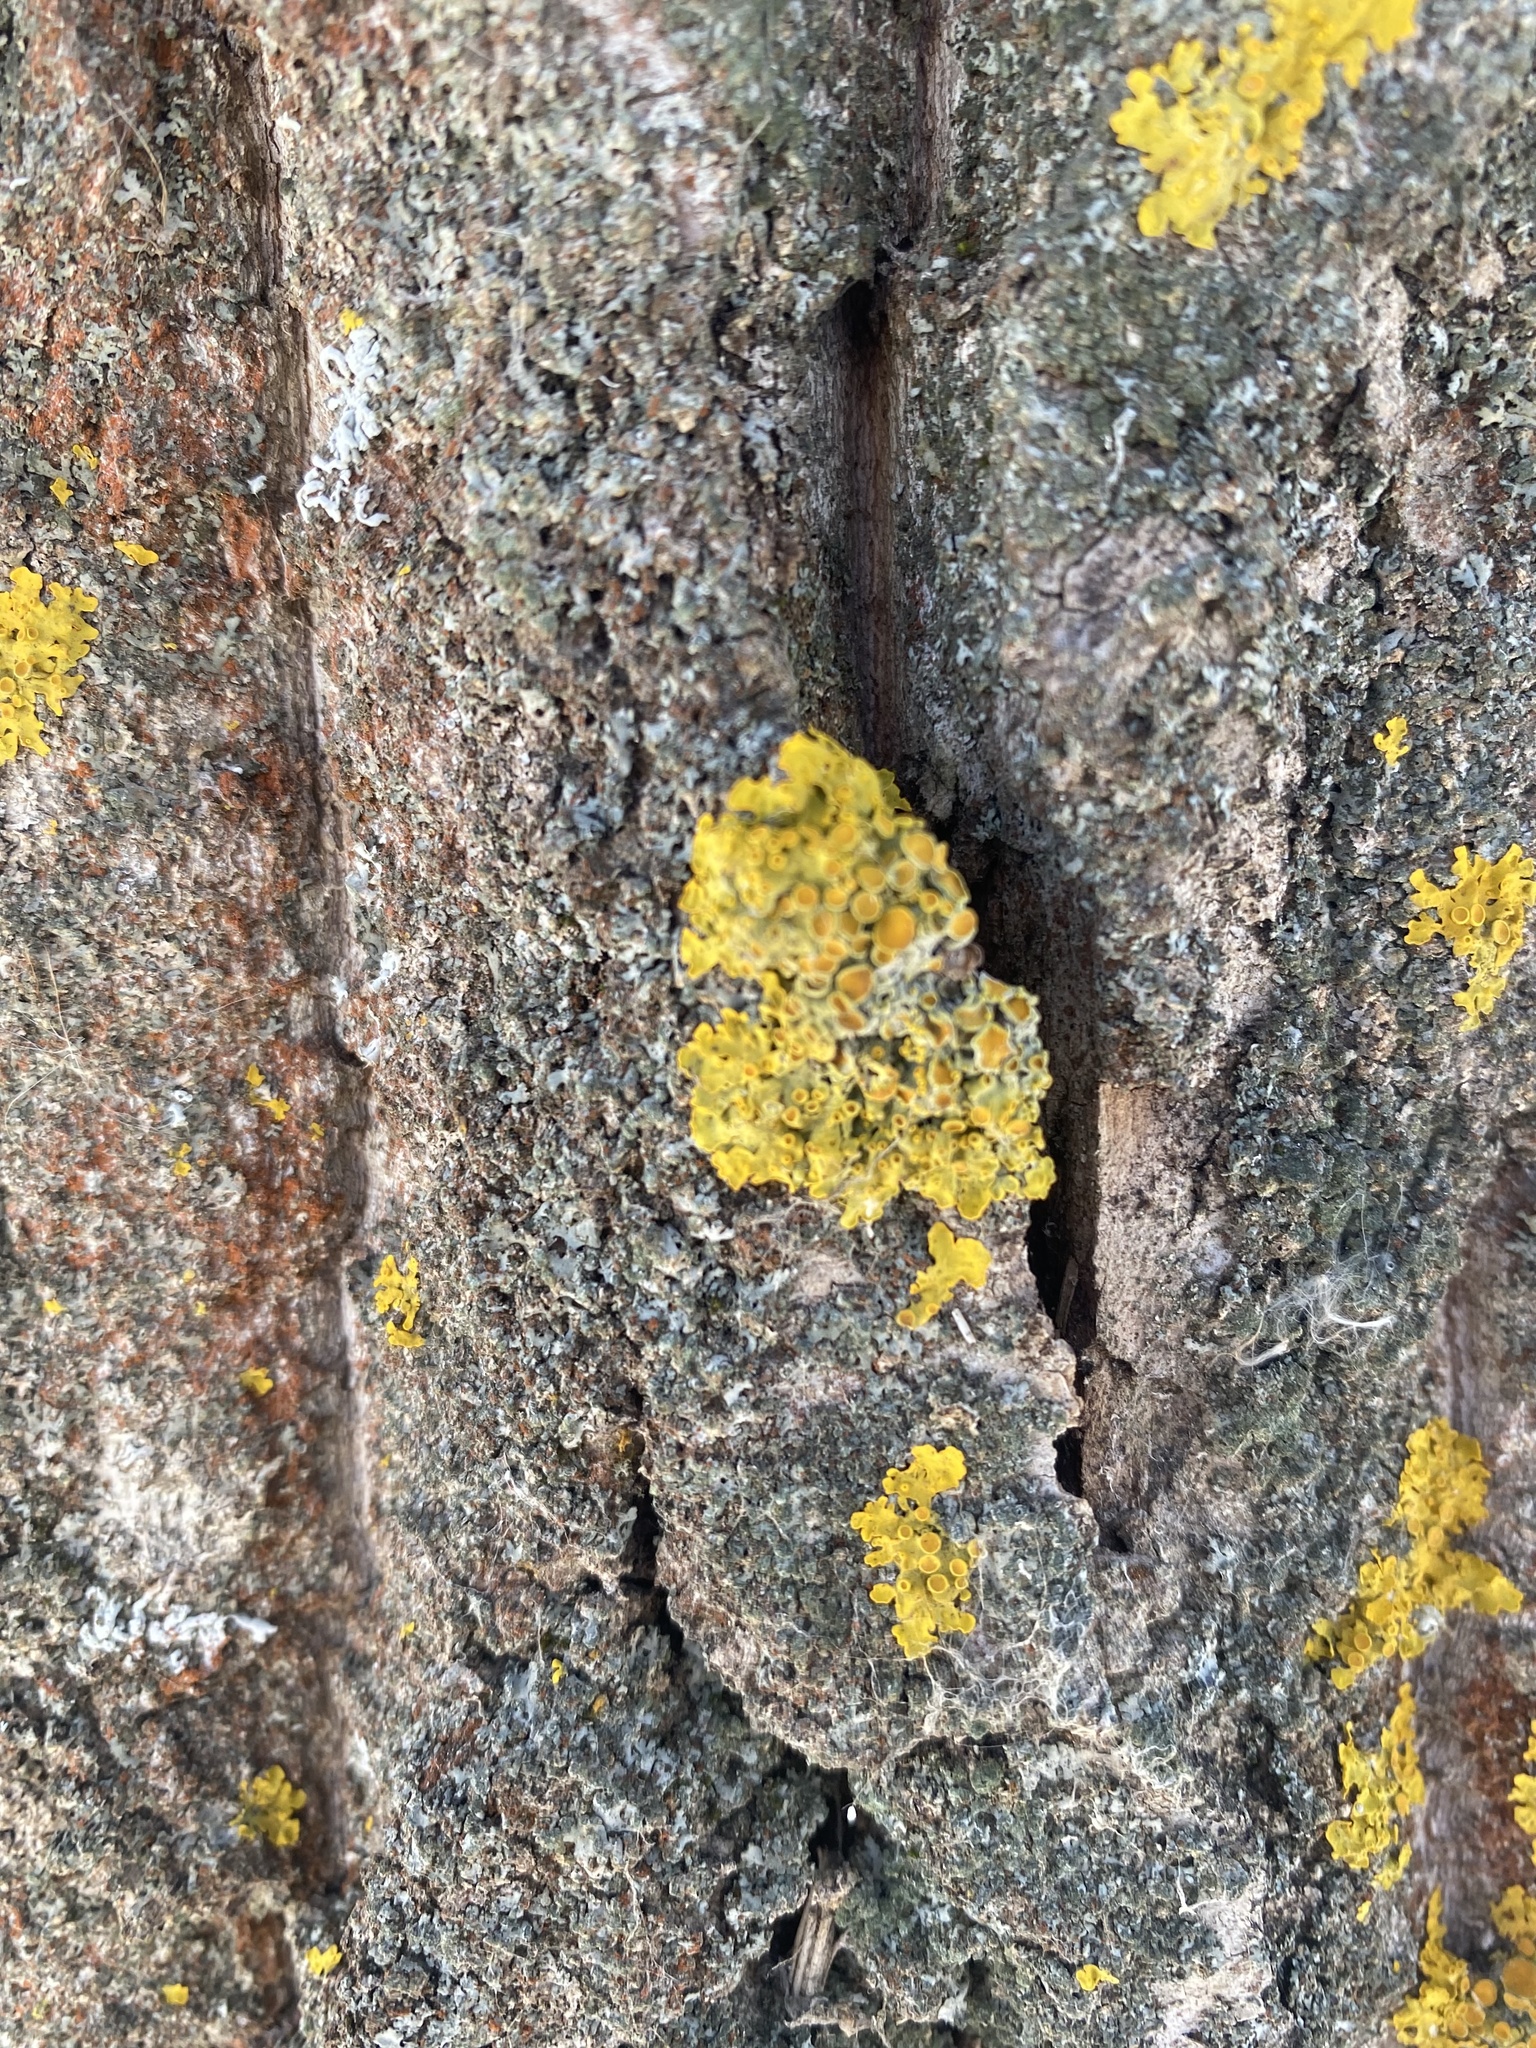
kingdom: Fungi
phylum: Ascomycota
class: Lecanoromycetes
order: Teloschistales
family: Teloschistaceae
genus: Xanthoria
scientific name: Xanthoria parietina
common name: Common orange lichen
